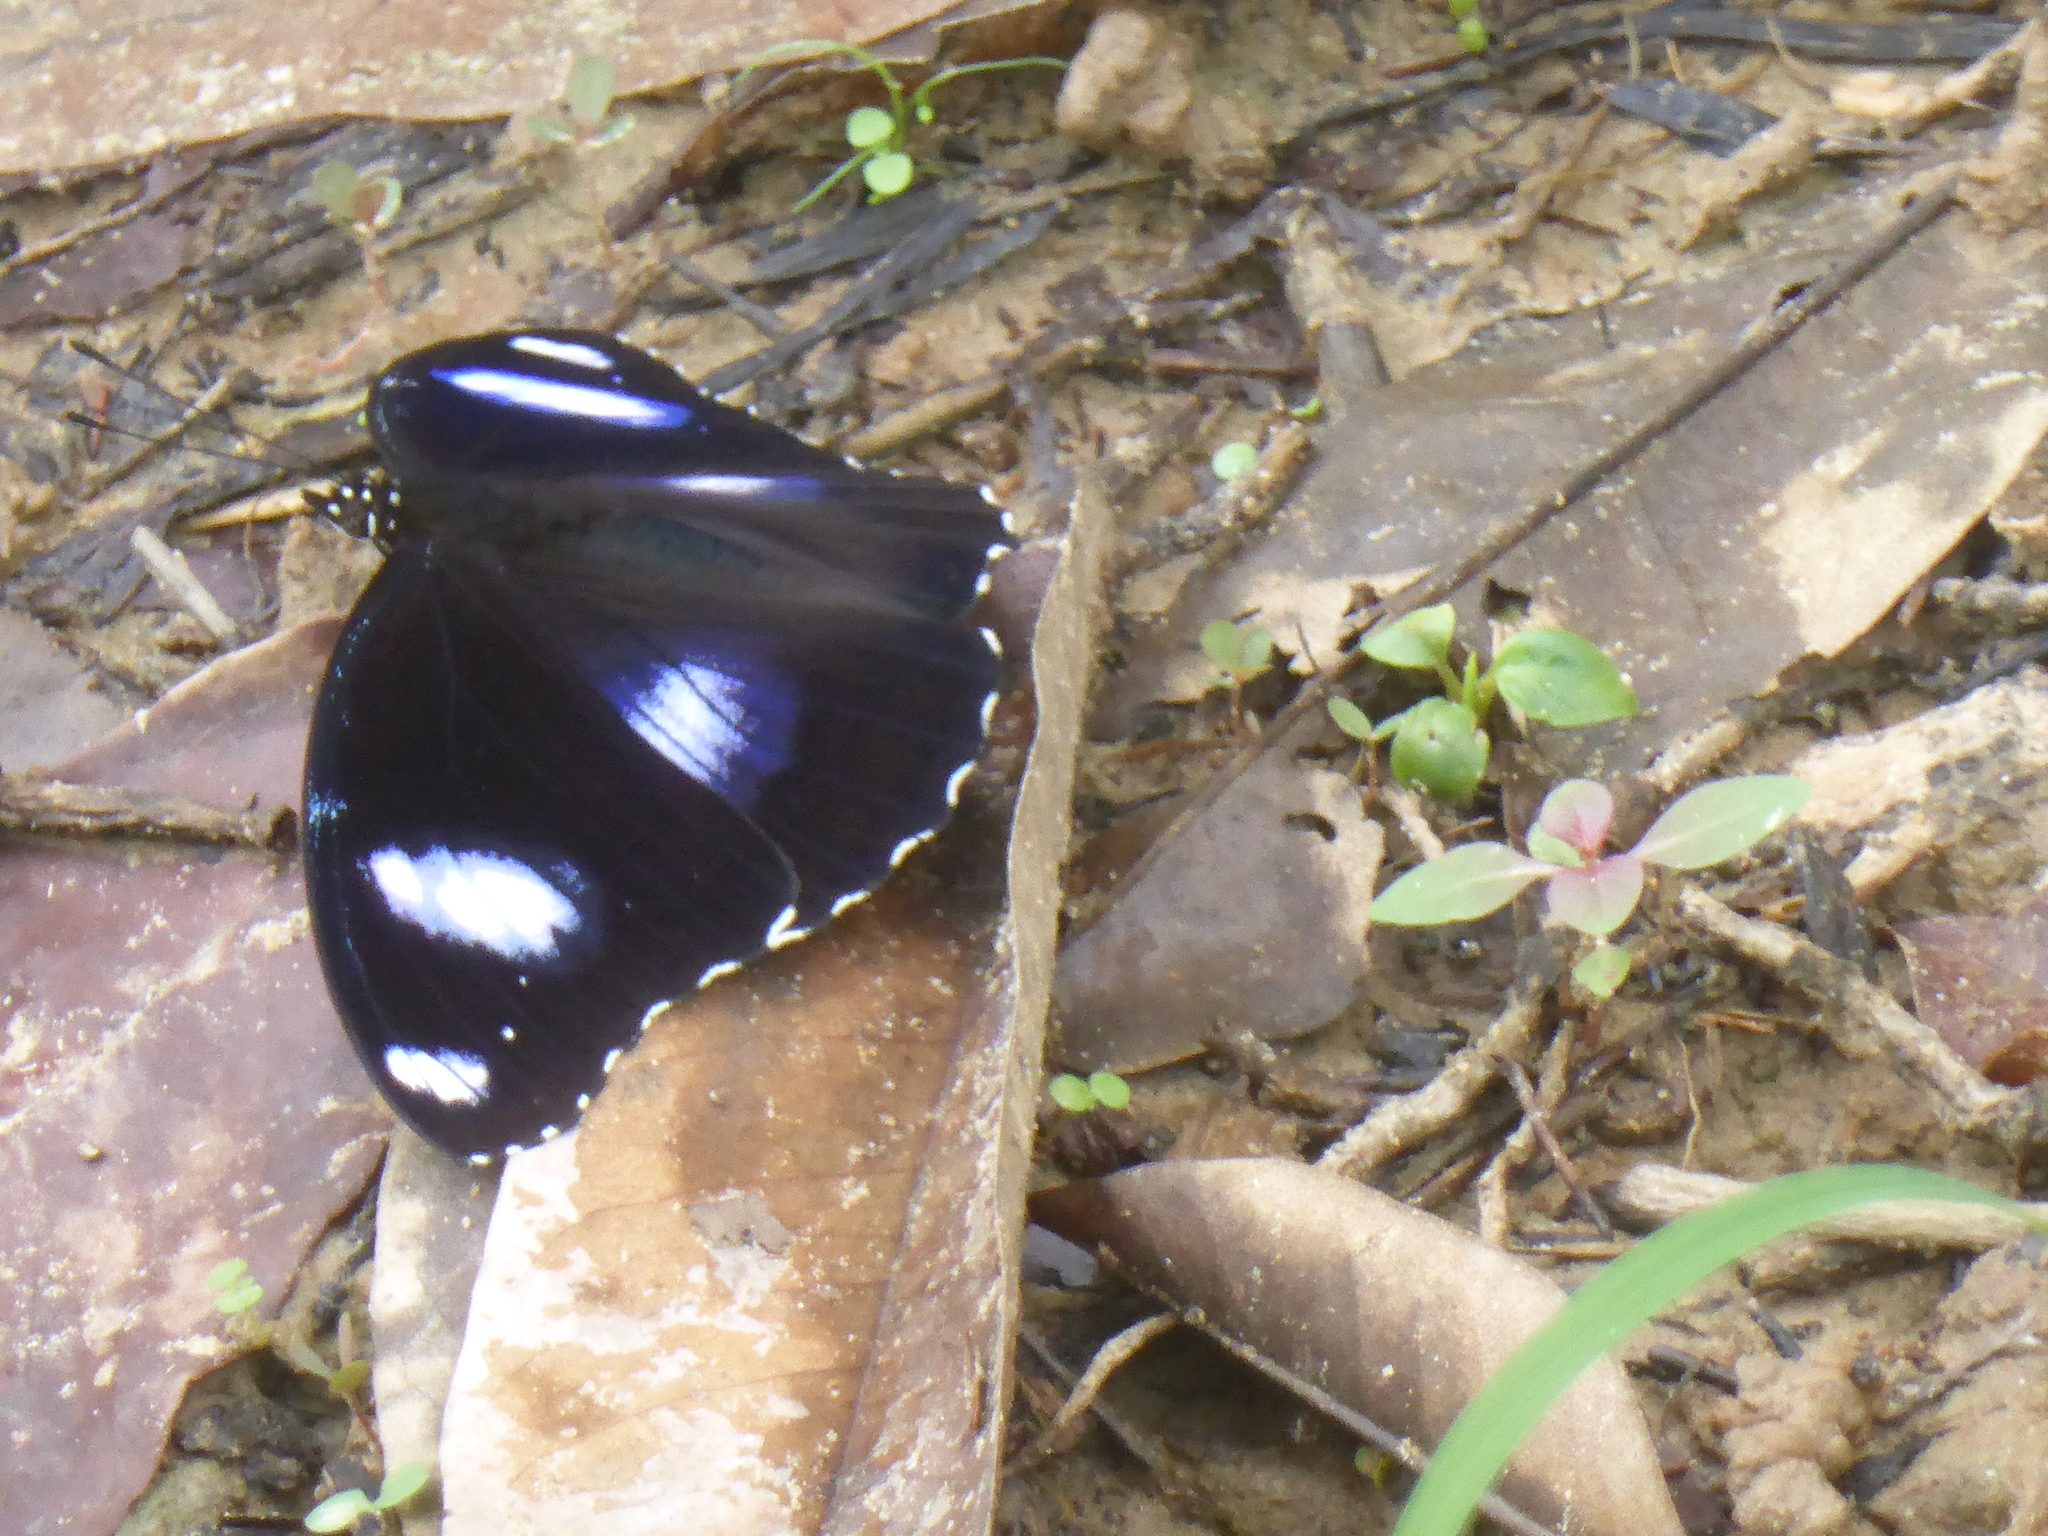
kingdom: Animalia
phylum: Arthropoda
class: Insecta
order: Lepidoptera
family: Nymphalidae
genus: Hypolimnas
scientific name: Hypolimnas bolina
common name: Great eggfly
